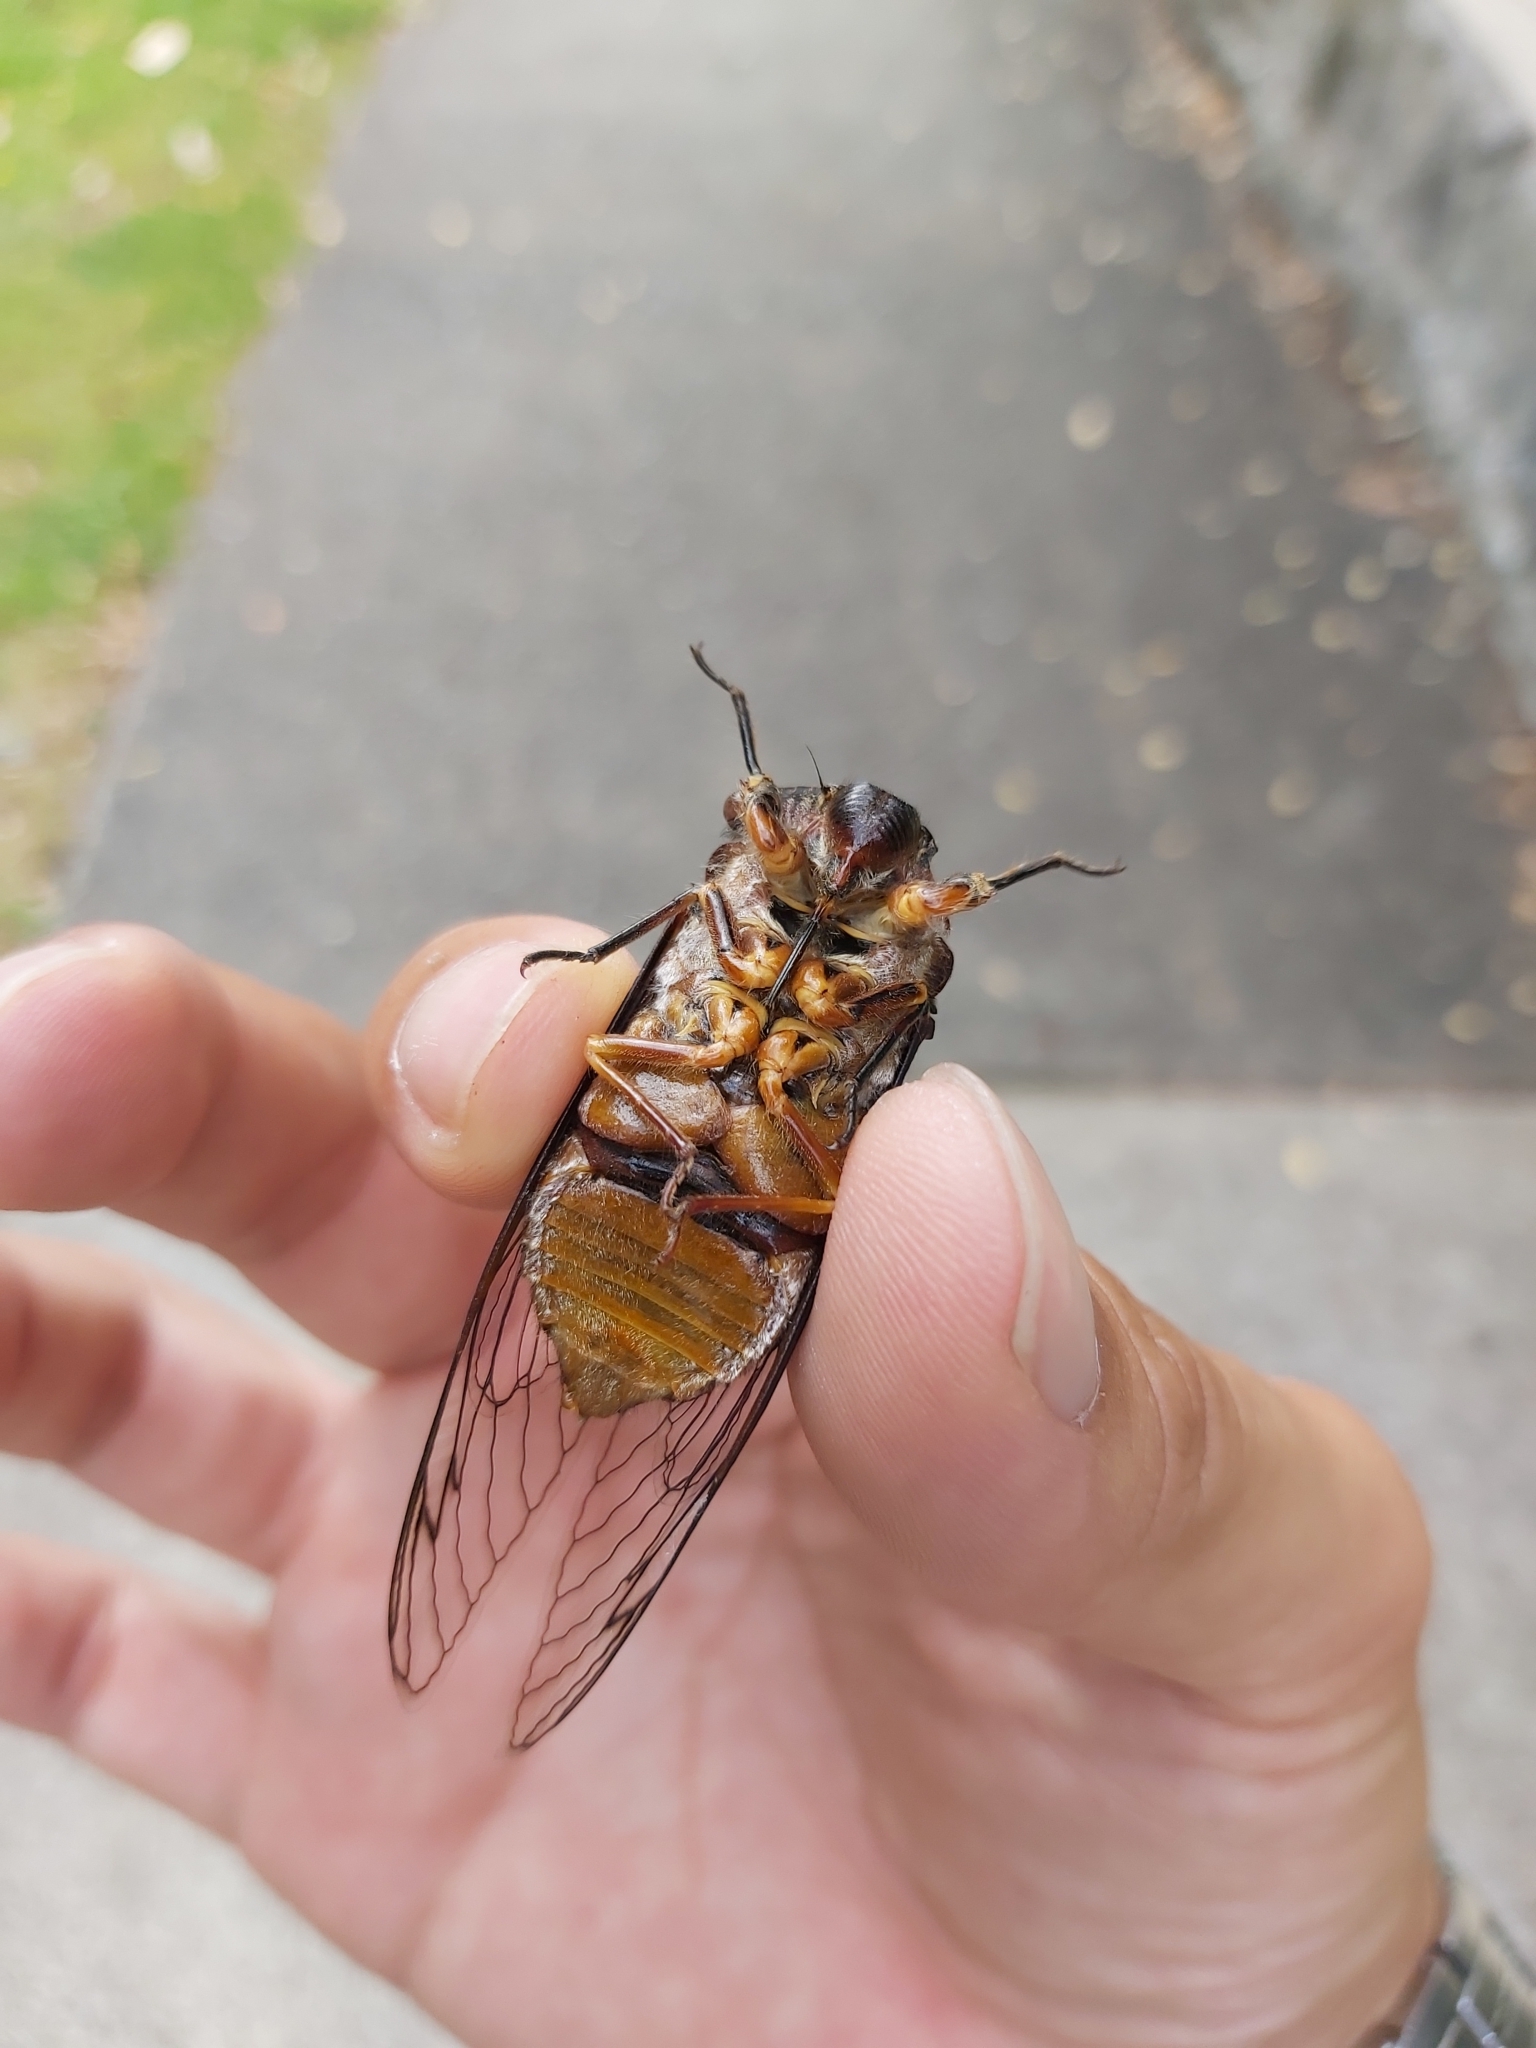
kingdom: Animalia
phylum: Arthropoda
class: Insecta
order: Hemiptera
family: Cicadidae
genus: Psaltoda
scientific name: Psaltoda plaga
